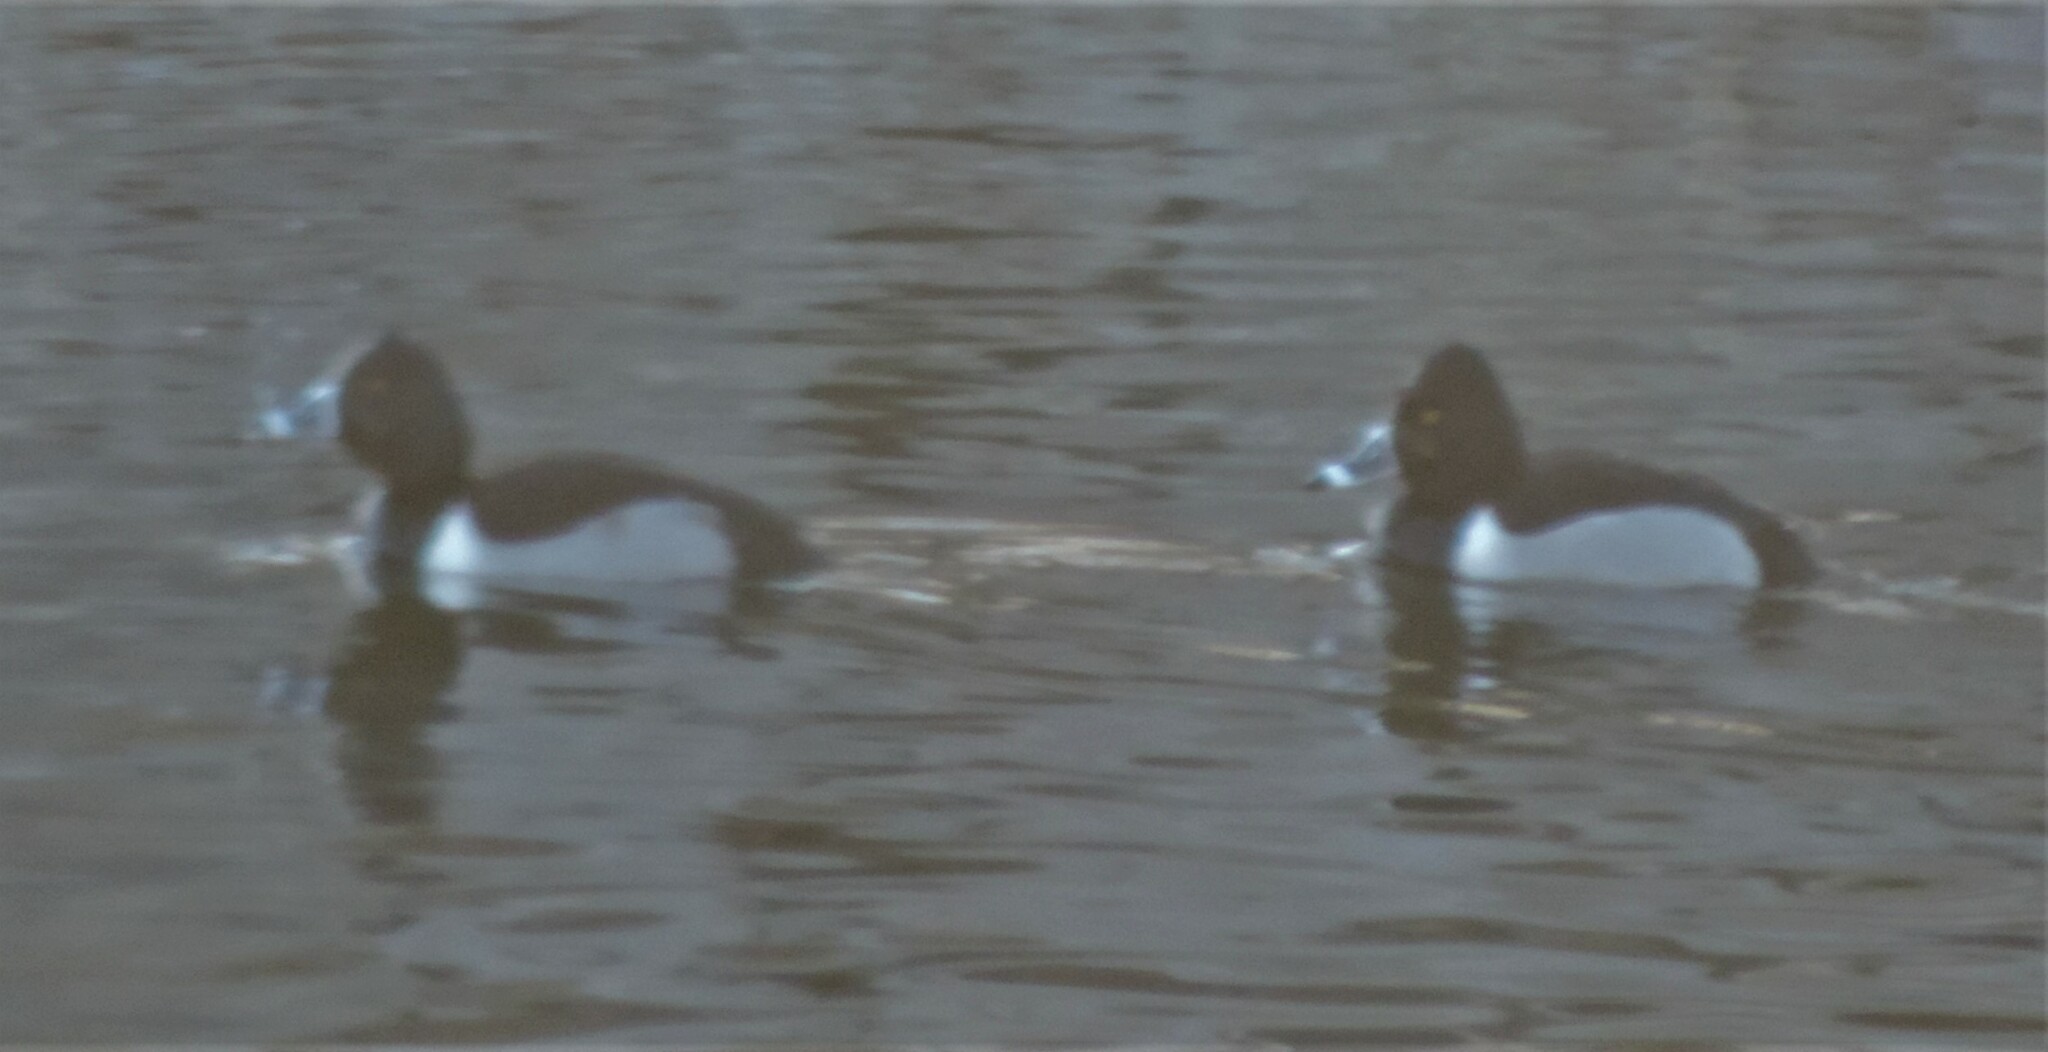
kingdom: Animalia
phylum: Chordata
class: Aves
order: Anseriformes
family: Anatidae
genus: Aythya
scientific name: Aythya collaris
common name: Ring-necked duck
